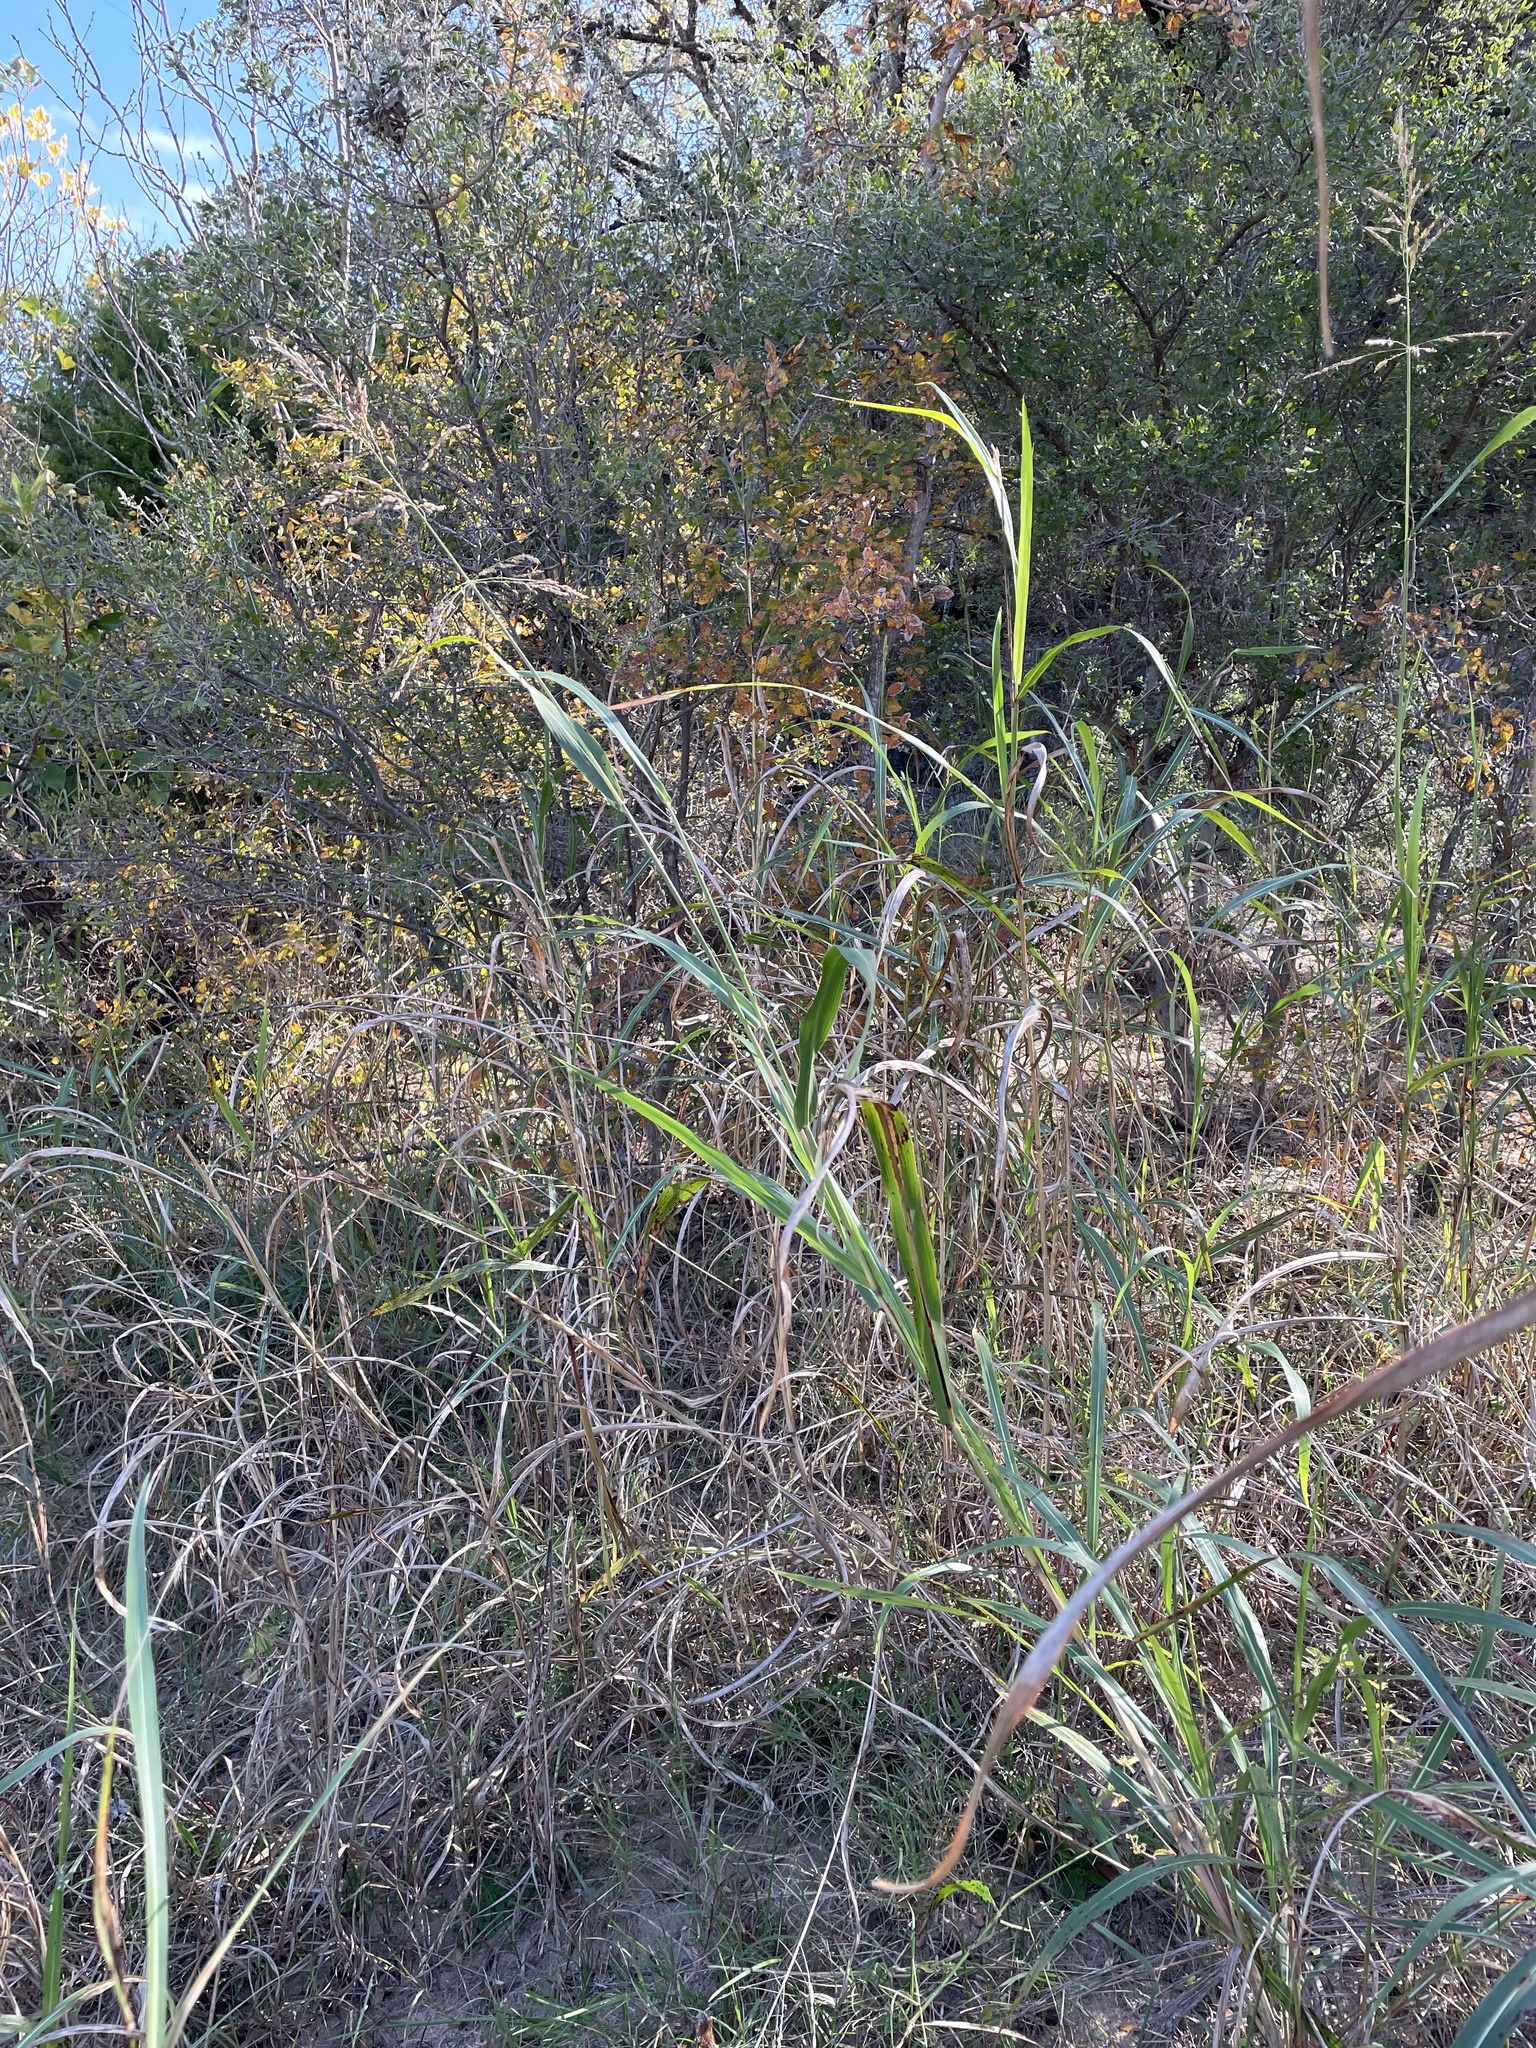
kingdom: Plantae
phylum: Tracheophyta
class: Liliopsida
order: Poales
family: Poaceae
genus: Sorghum
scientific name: Sorghum halepense
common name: Johnson-grass
